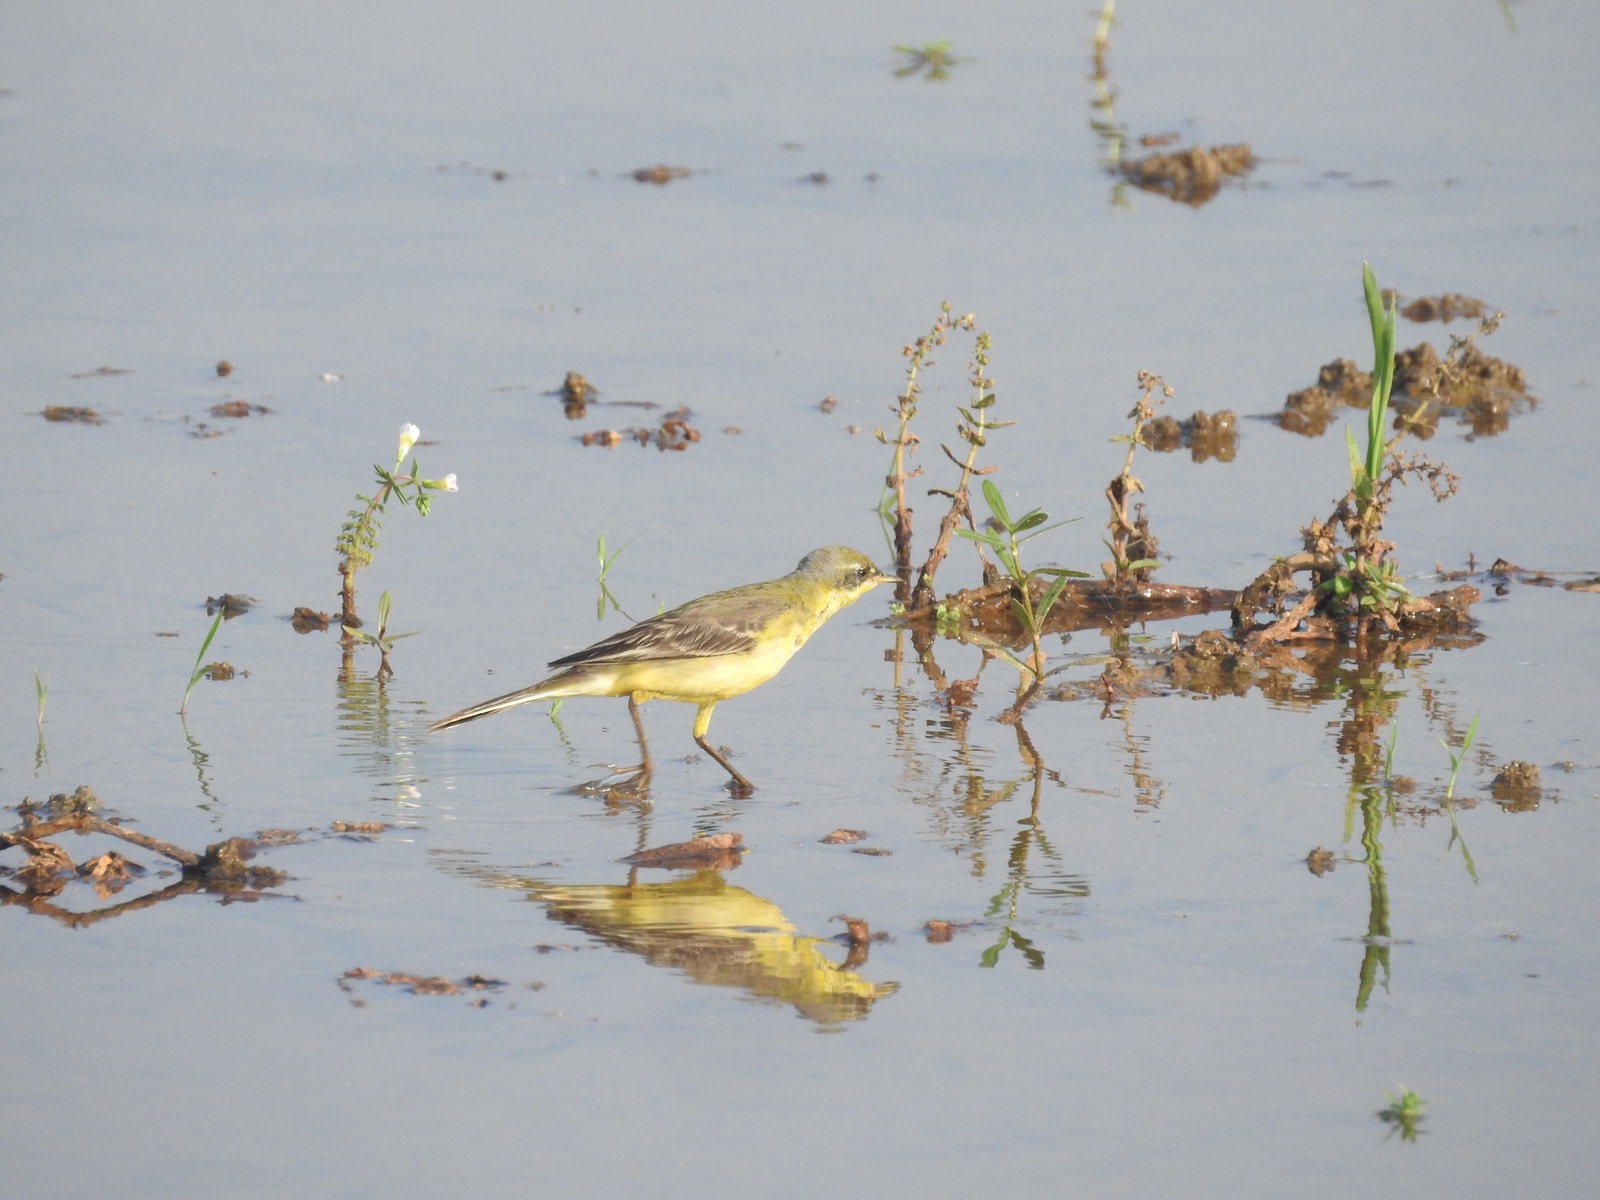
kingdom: Animalia
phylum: Chordata
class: Aves
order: Passeriformes
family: Motacillidae
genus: Motacilla
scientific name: Motacilla flava
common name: Western yellow wagtail
